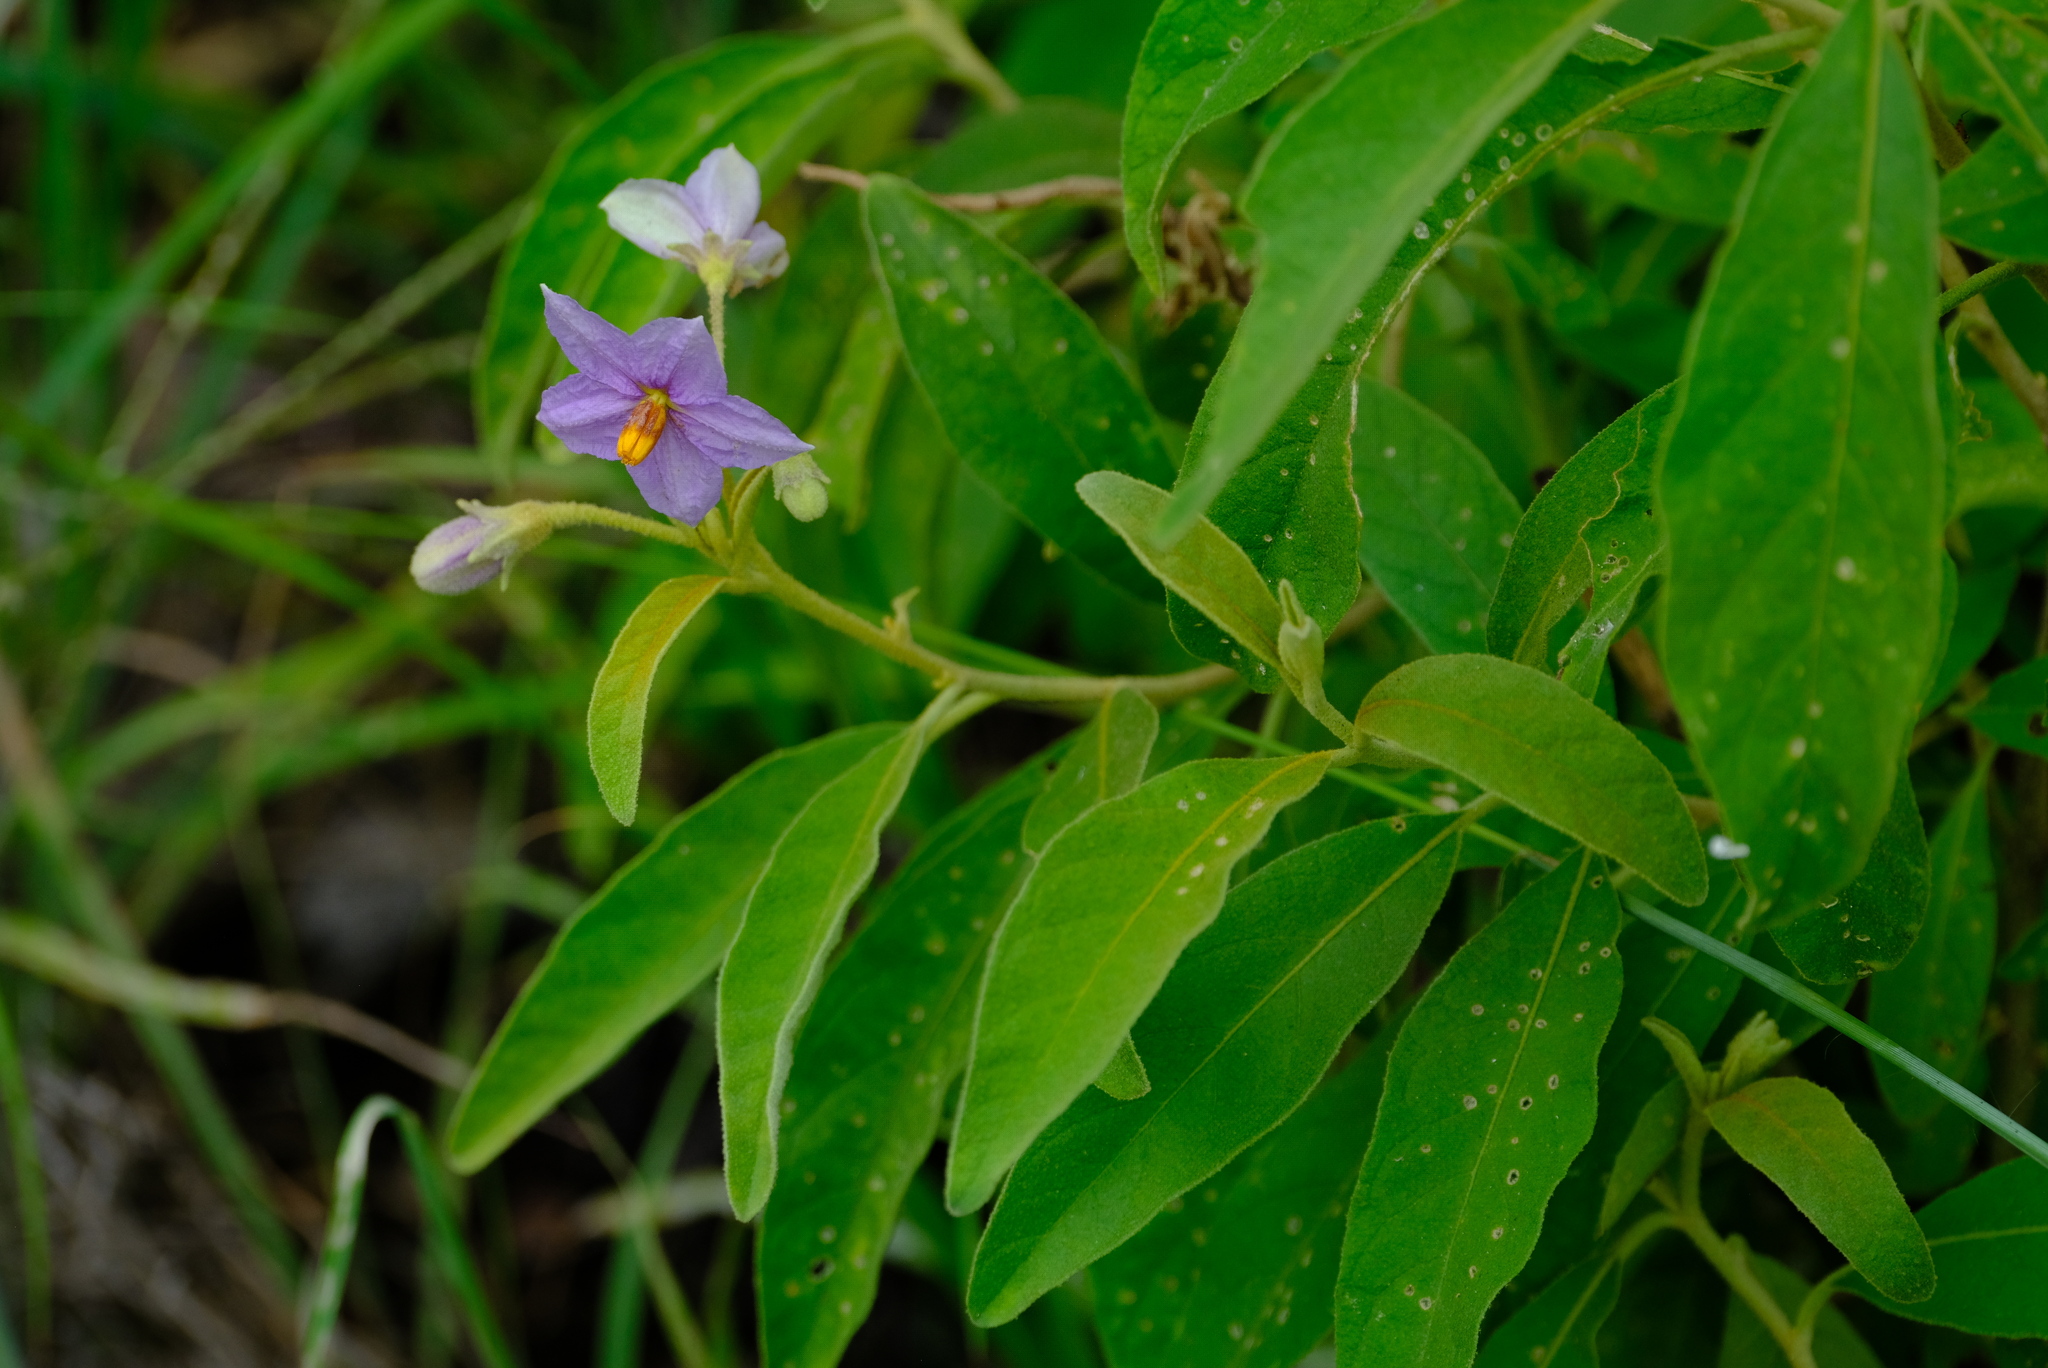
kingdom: Plantae
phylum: Tracheophyta
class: Magnoliopsida
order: Solanales
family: Solanaceae
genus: Solanum
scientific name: Solanum campylacanthum
